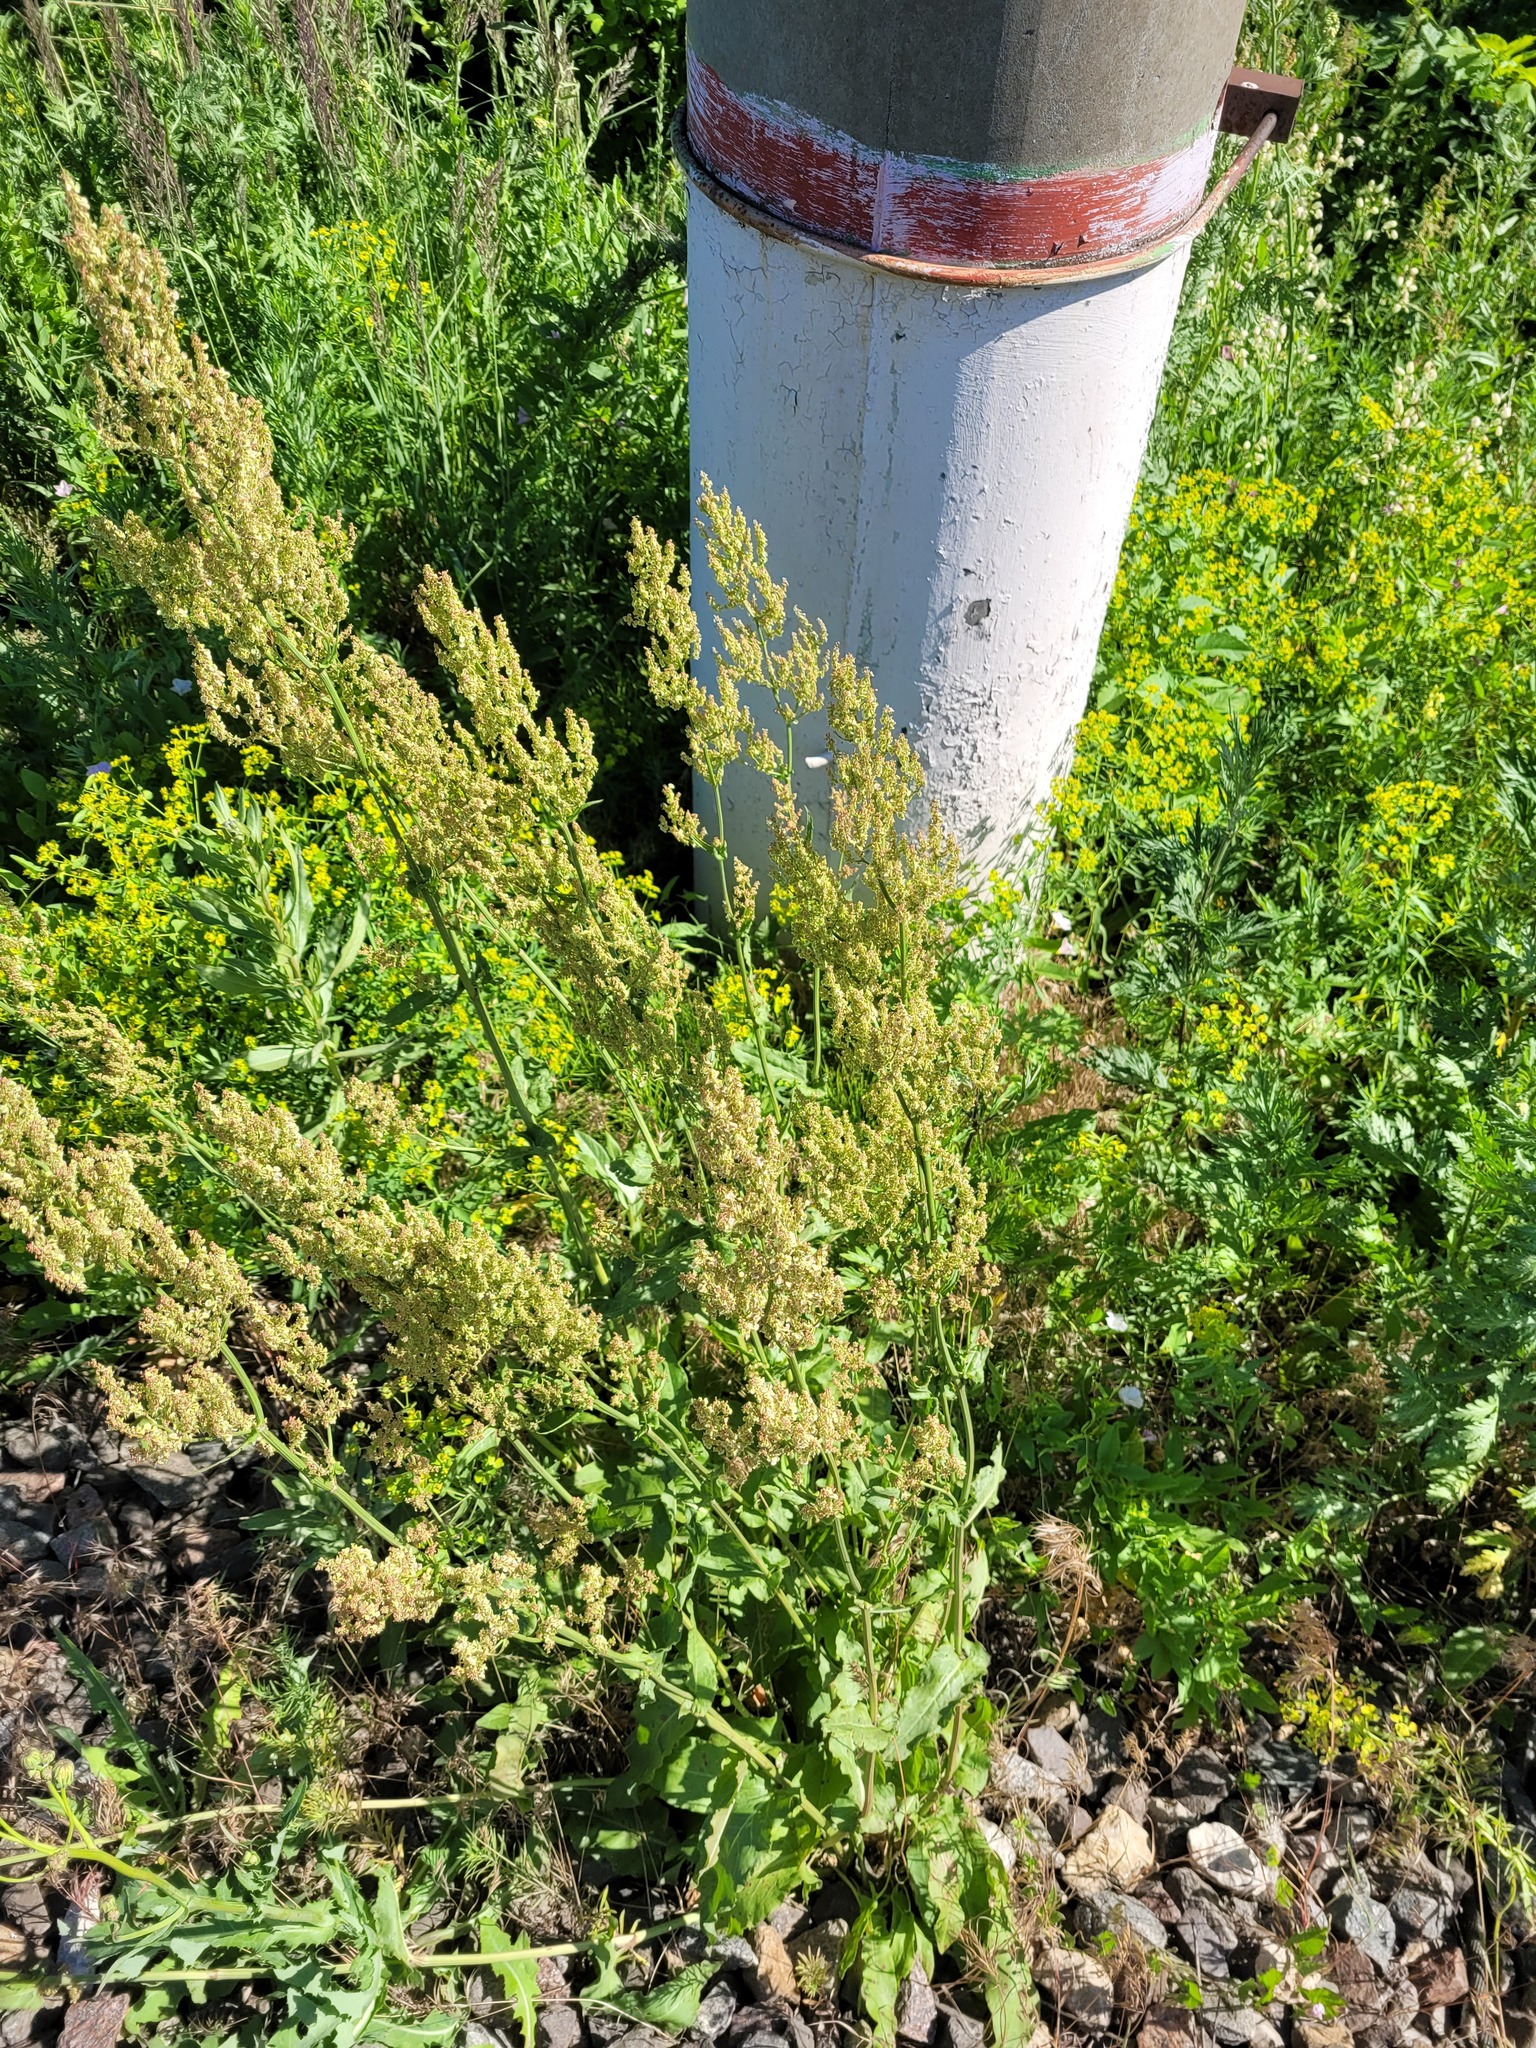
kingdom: Plantae
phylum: Tracheophyta
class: Magnoliopsida
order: Caryophyllales
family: Polygonaceae
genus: Rumex
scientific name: Rumex thyrsiflorus
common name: Garden sorrel
